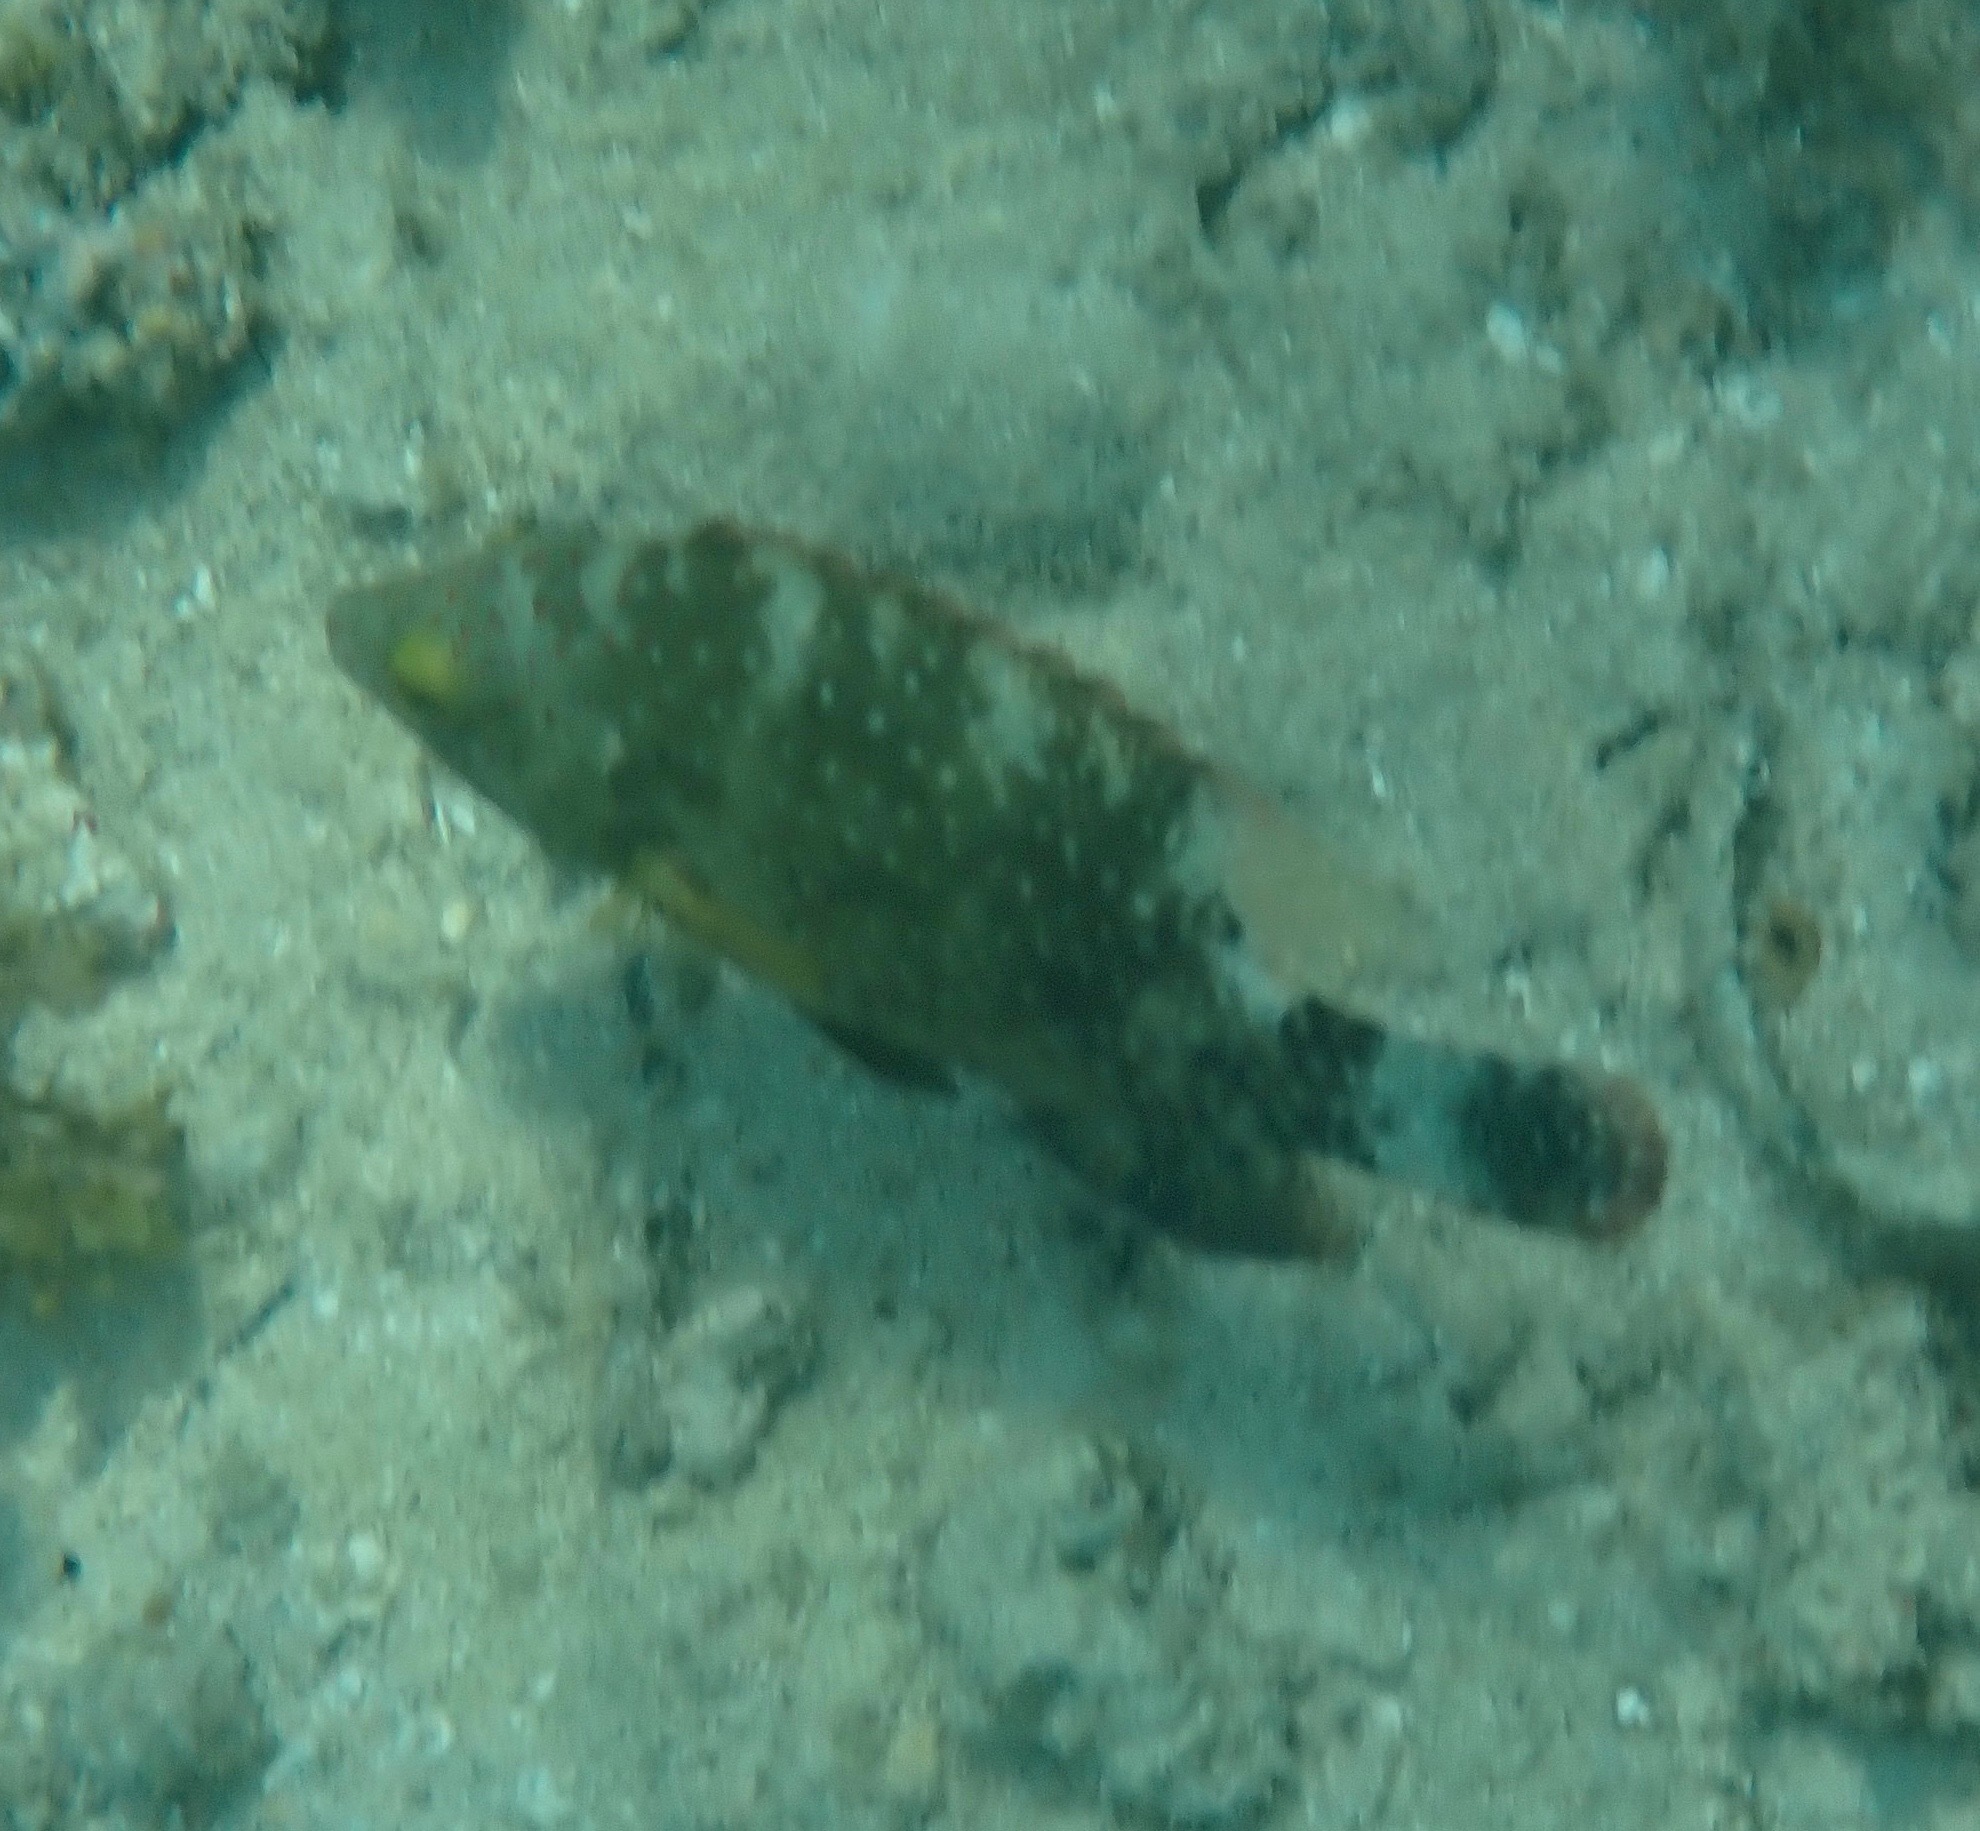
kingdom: Animalia
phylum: Chordata
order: Perciformes
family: Labridae
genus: Cheilinus
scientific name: Cheilinus chlorourus
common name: Floral wrasse
